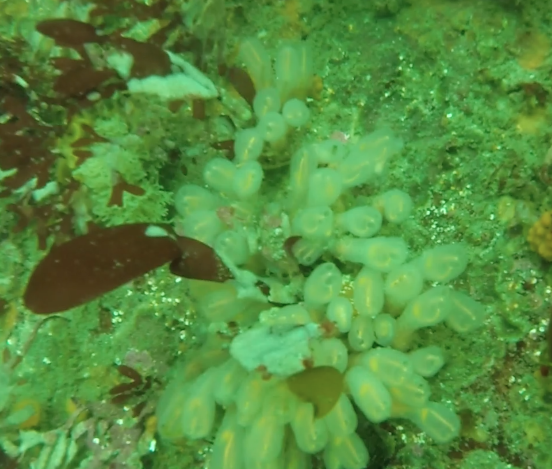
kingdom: Animalia
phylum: Chordata
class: Ascidiacea
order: Aplousobranchia
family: Clavelinidae
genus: Clavelina
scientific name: Clavelina huntsmani
